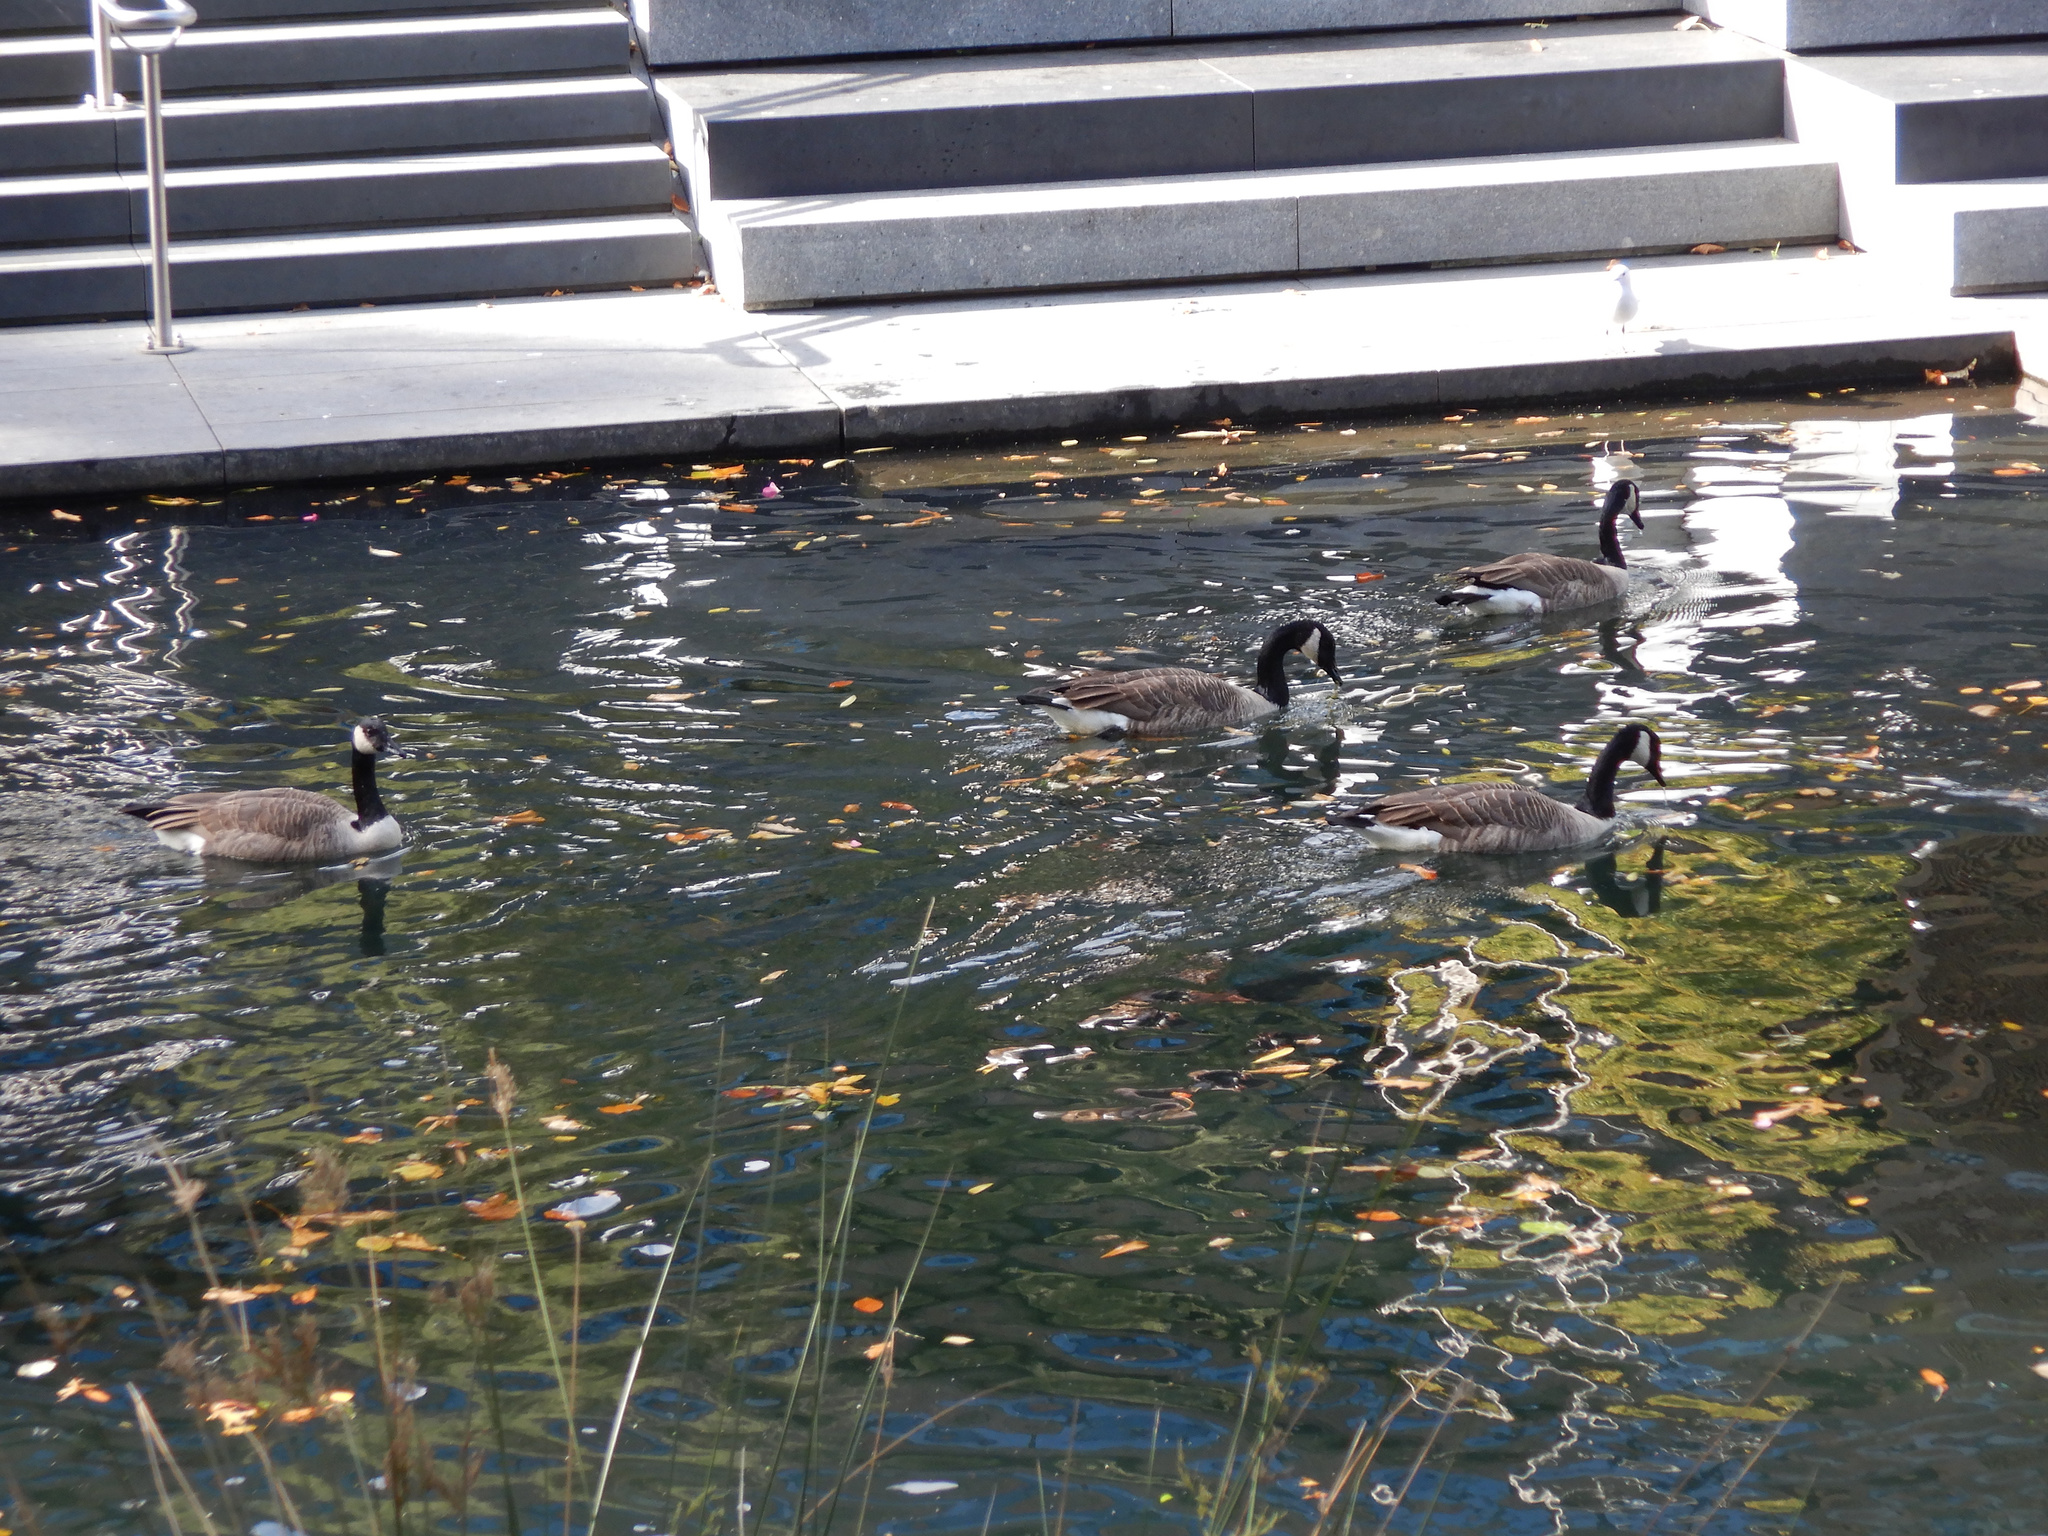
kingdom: Animalia
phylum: Chordata
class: Aves
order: Anseriformes
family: Anatidae
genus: Branta
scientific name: Branta canadensis
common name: Canada goose
